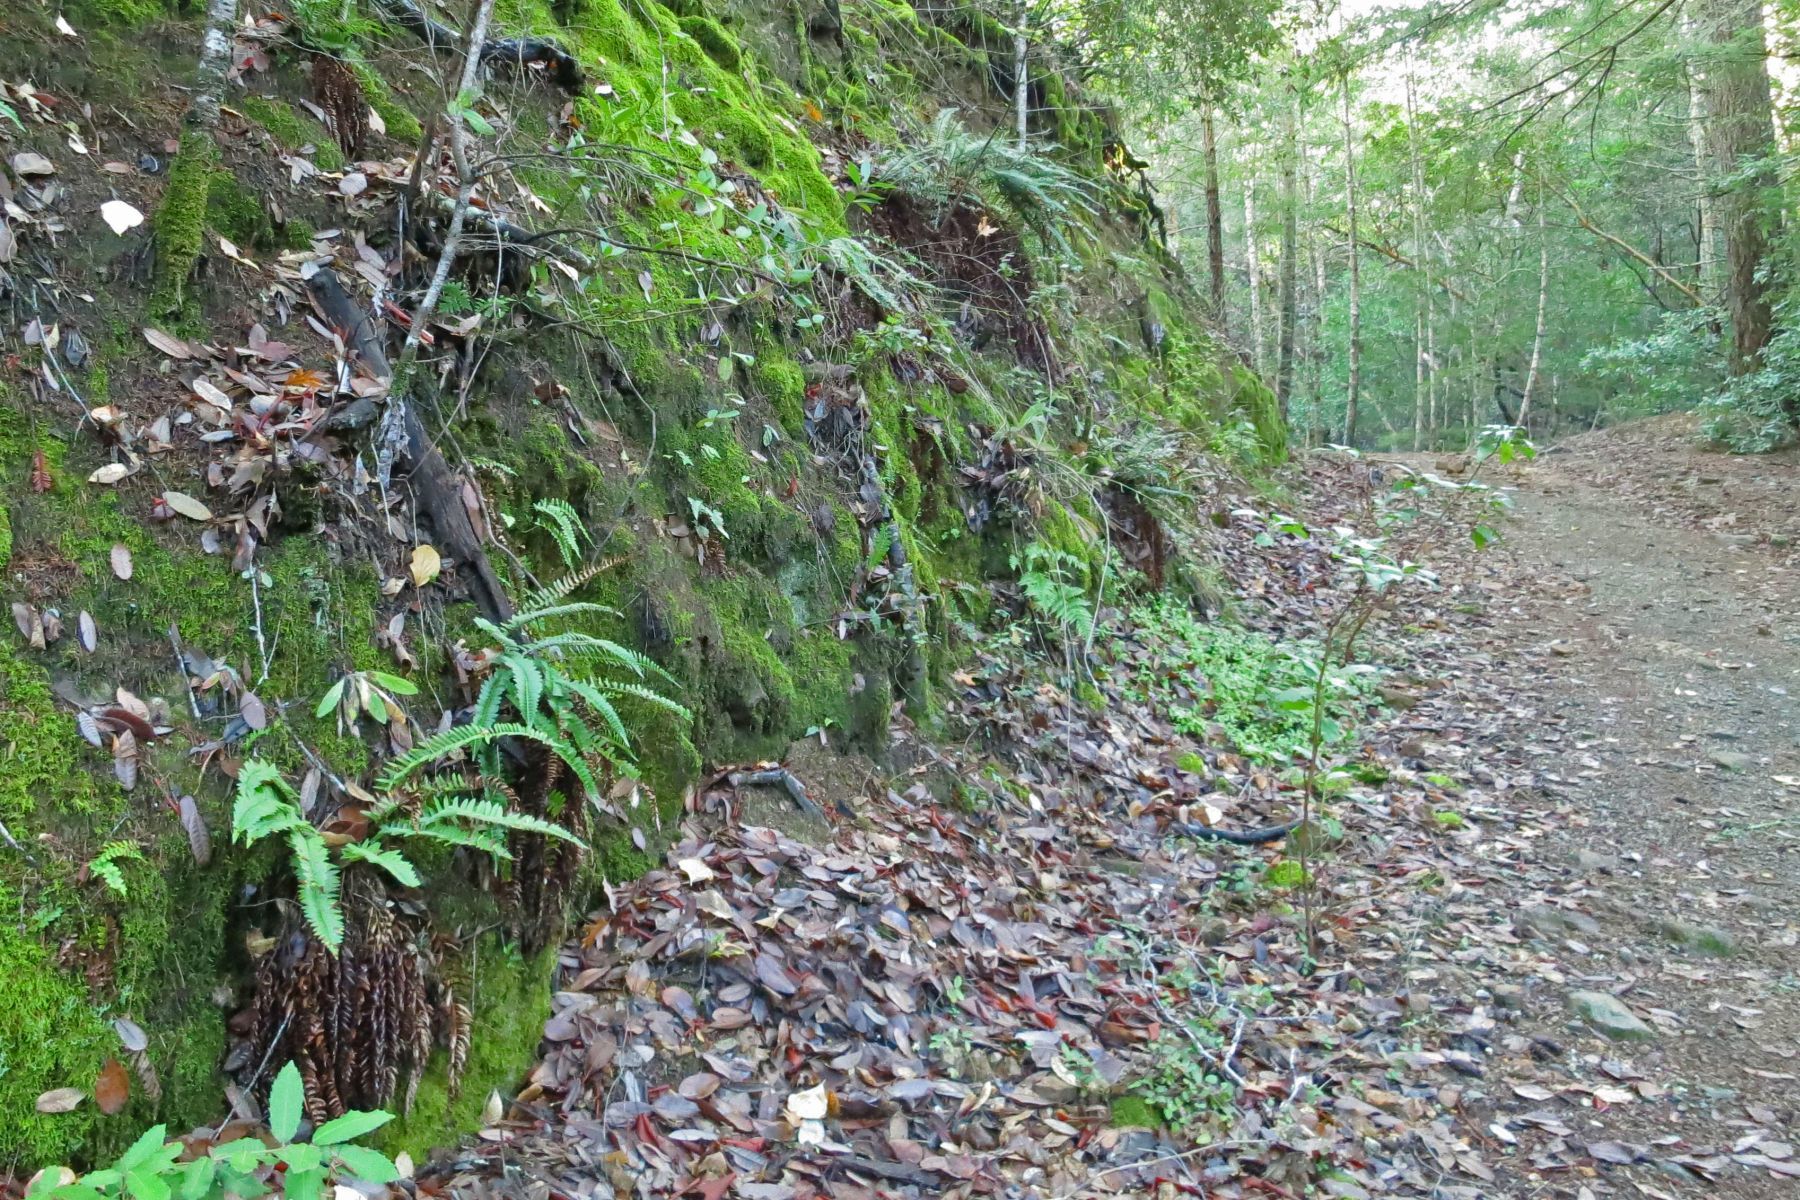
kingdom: Plantae
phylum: Tracheophyta
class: Polypodiopsida
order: Polypodiales
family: Dryopteridaceae
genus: Polystichum
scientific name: Polystichum imbricans
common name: Dwarf western sword fern
